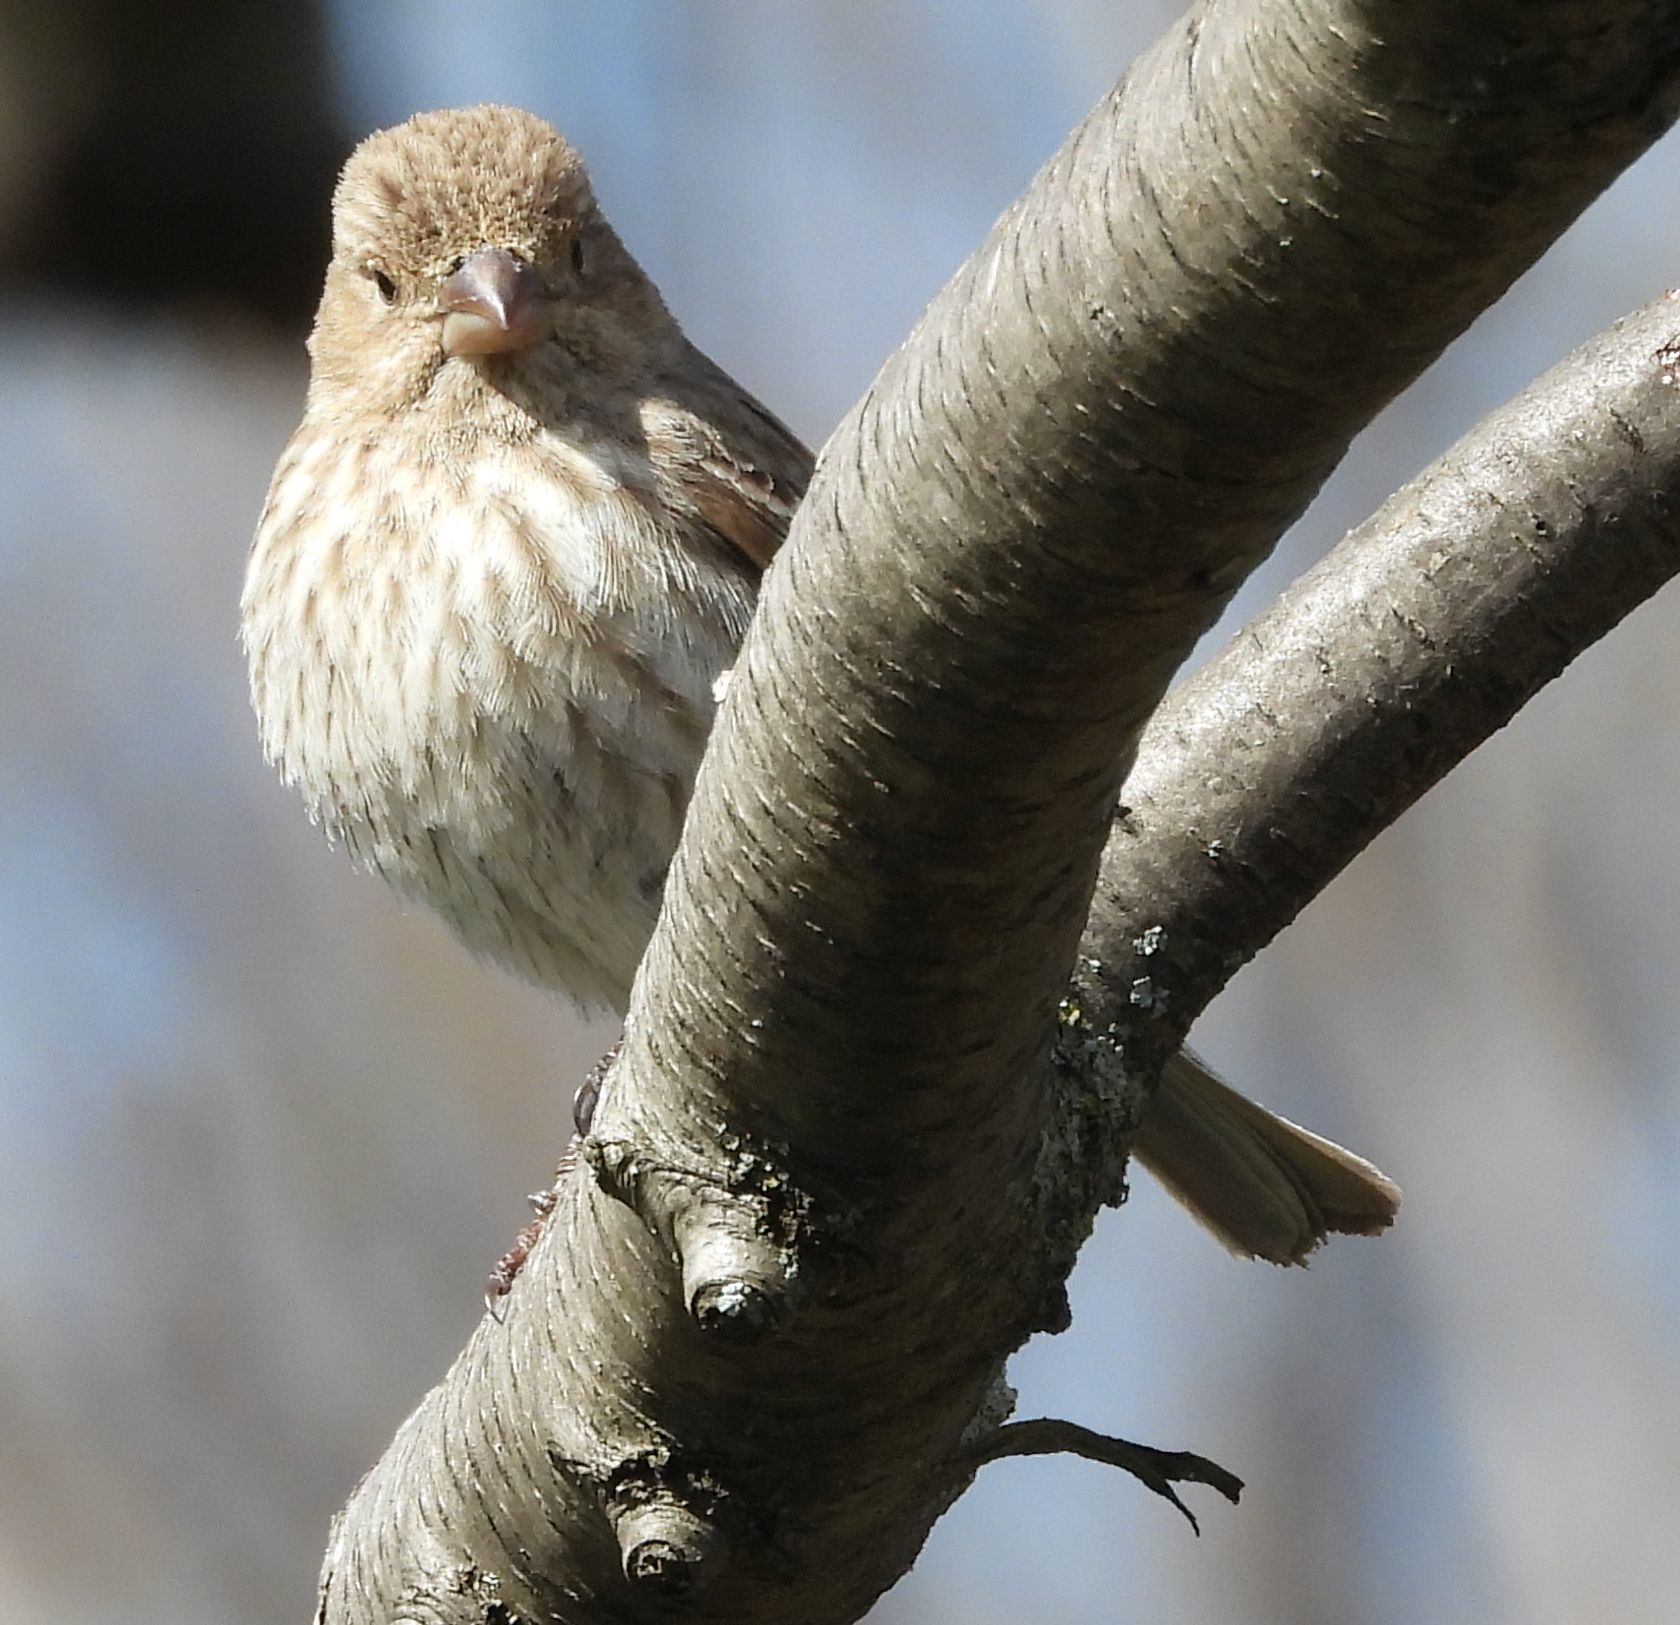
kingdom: Animalia
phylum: Chordata
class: Aves
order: Passeriformes
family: Fringillidae
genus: Haemorhous
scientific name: Haemorhous mexicanus
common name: House finch
